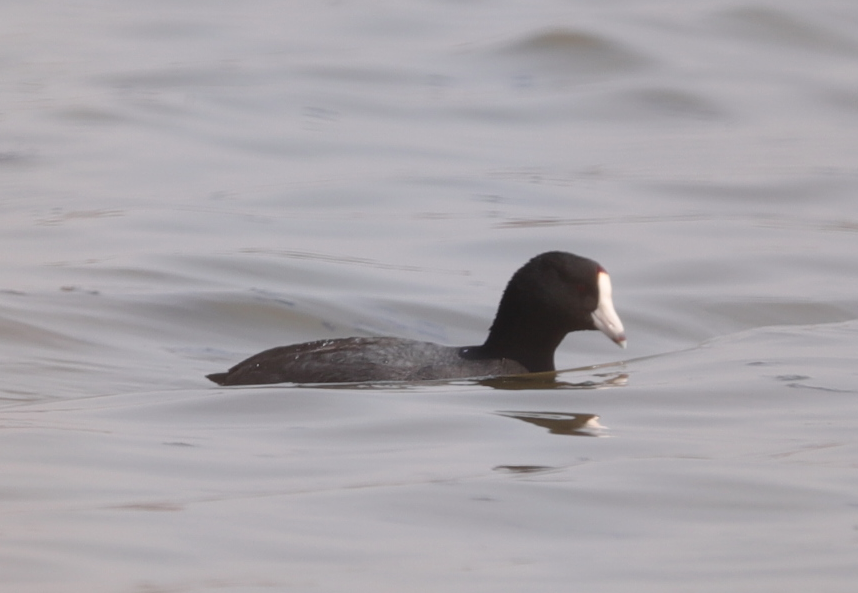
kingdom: Animalia
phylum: Chordata
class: Aves
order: Gruiformes
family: Rallidae
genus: Fulica
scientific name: Fulica americana
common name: American coot
